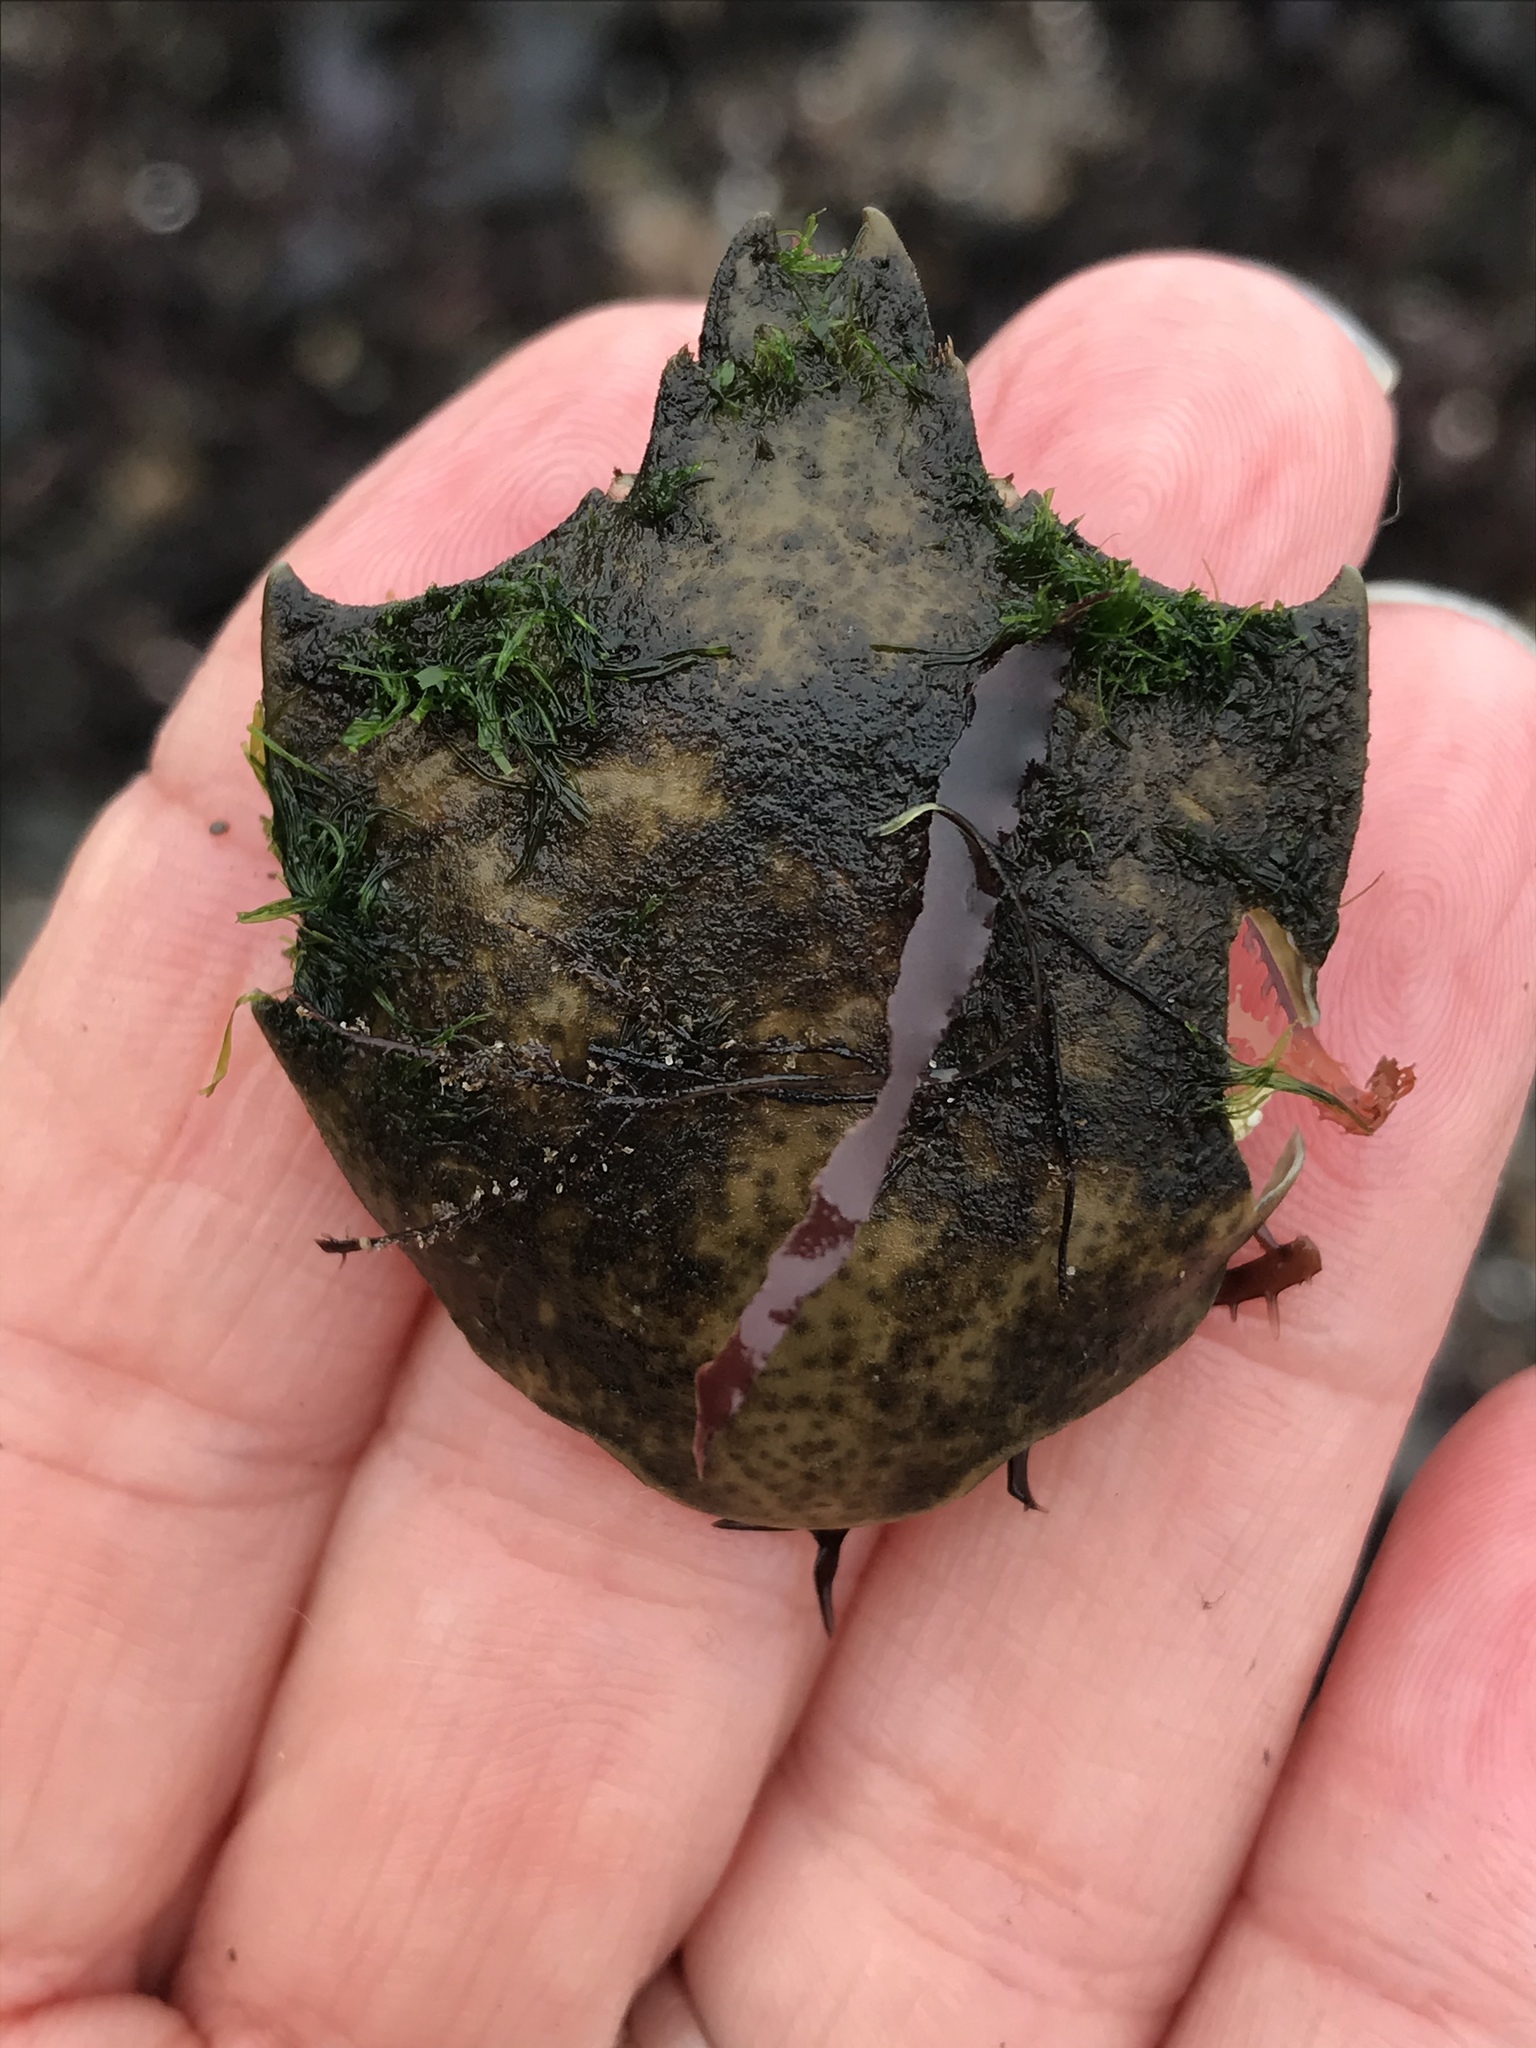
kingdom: Animalia
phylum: Arthropoda
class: Malacostraca
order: Decapoda
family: Epialtidae
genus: Pugettia
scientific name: Pugettia producta
